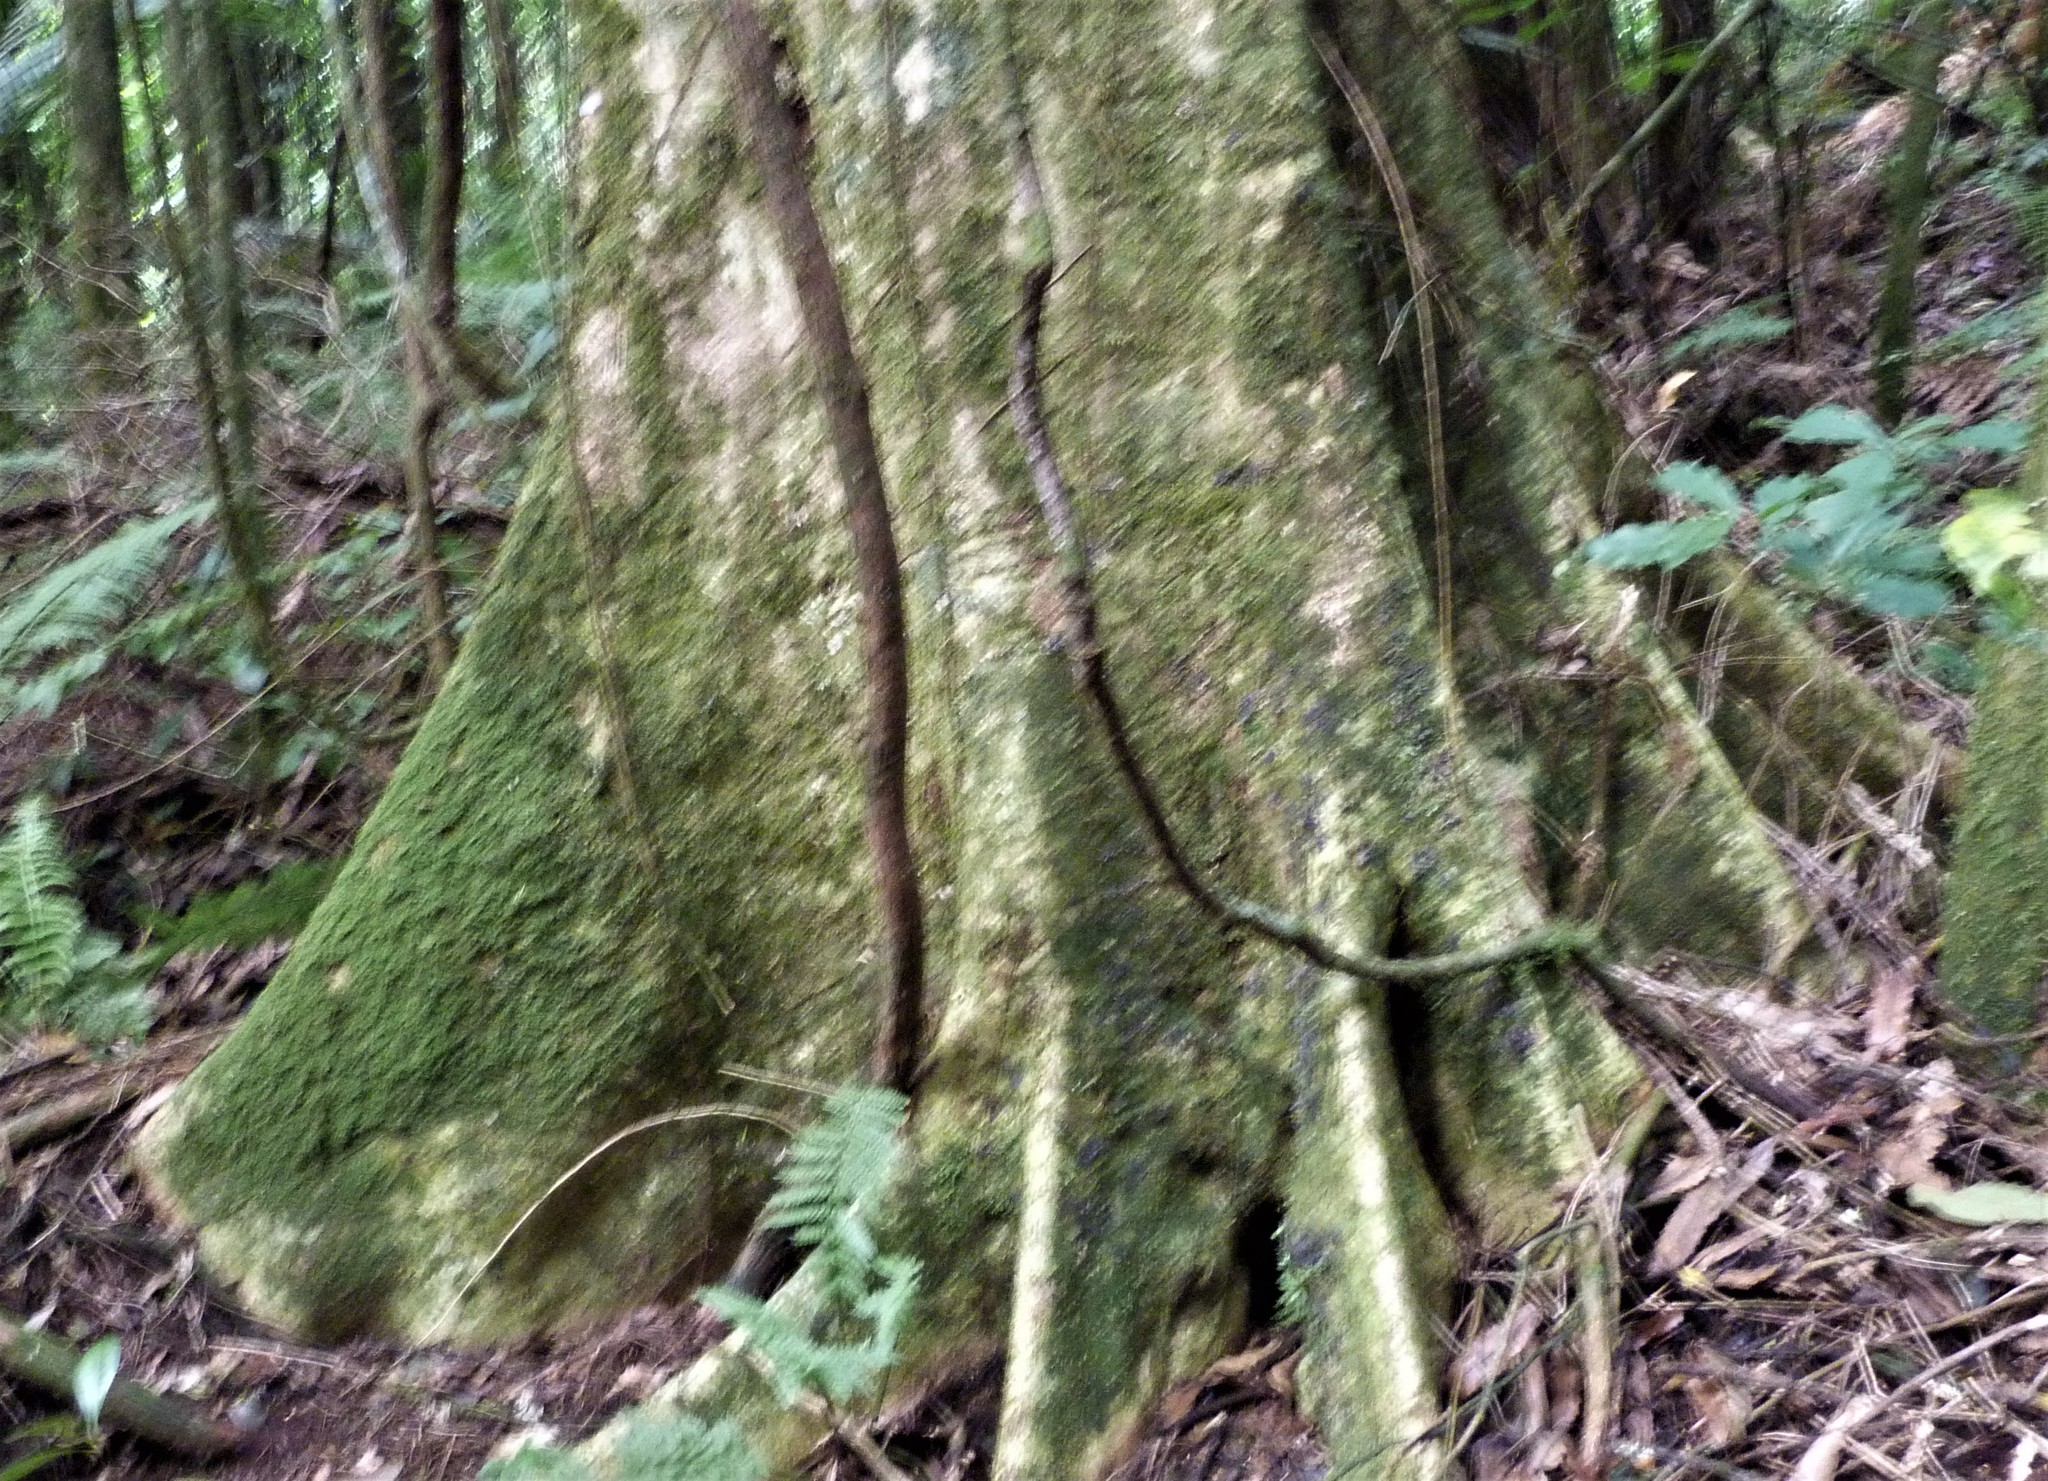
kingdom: Plantae
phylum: Tracheophyta
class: Magnoliopsida
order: Laurales
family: Atherospermataceae
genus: Laurelia
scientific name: Laurelia novae-zelandiae
